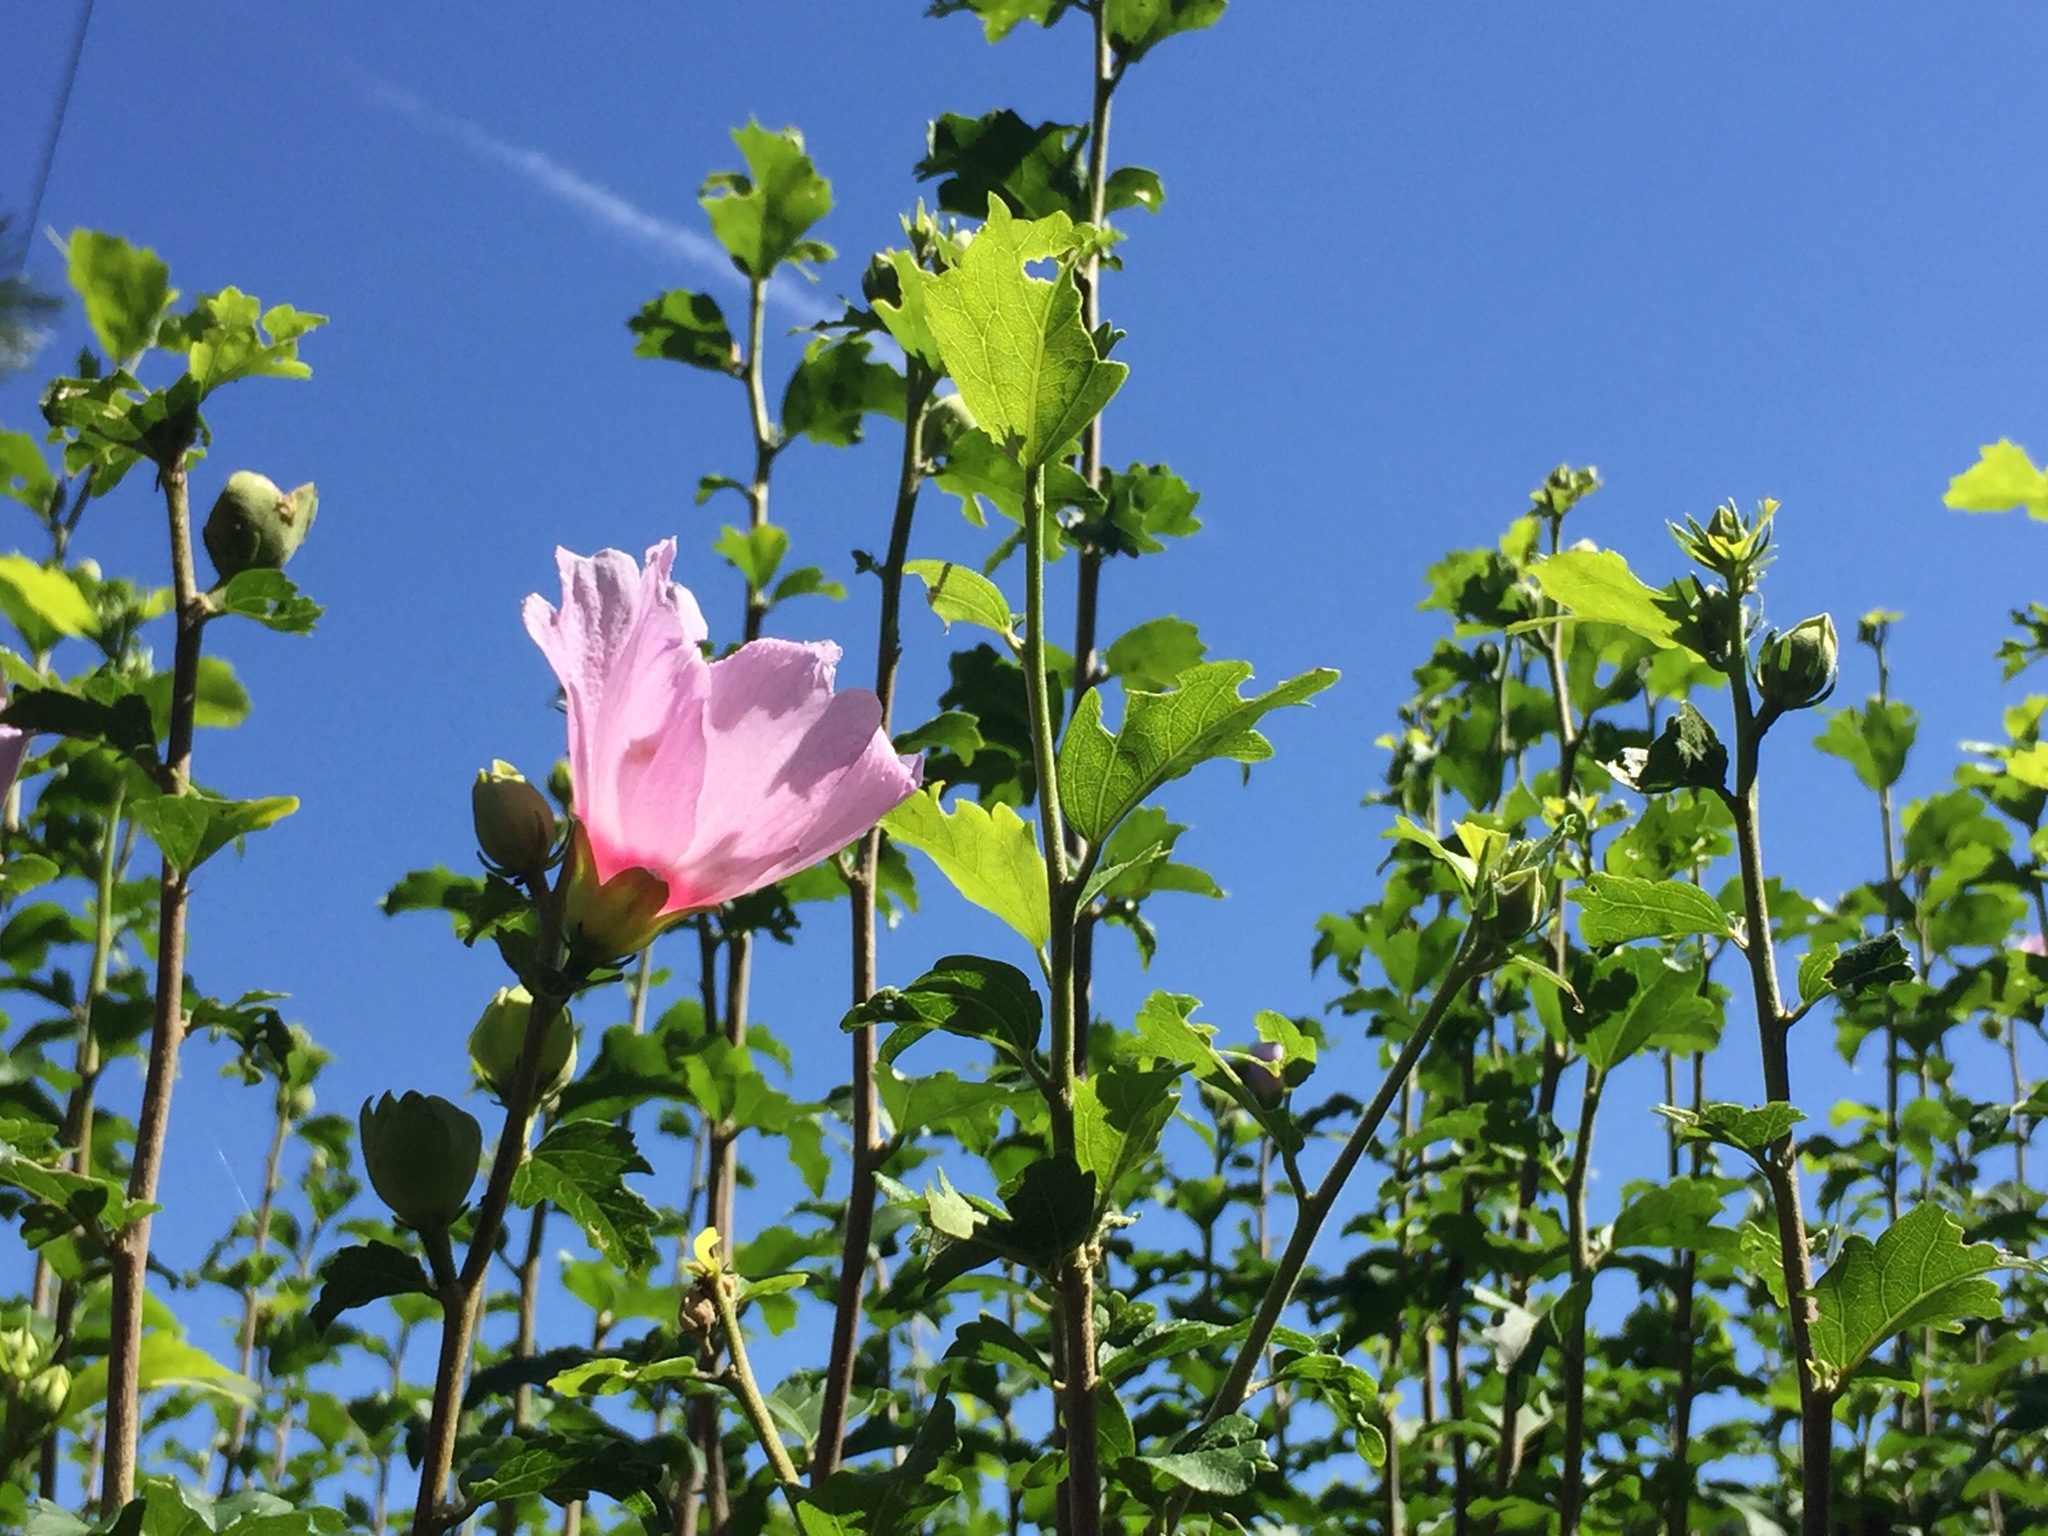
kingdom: Plantae
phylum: Tracheophyta
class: Magnoliopsida
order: Malvales
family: Malvaceae
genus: Hibiscus
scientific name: Hibiscus syriacus
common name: Syrian ketmia
